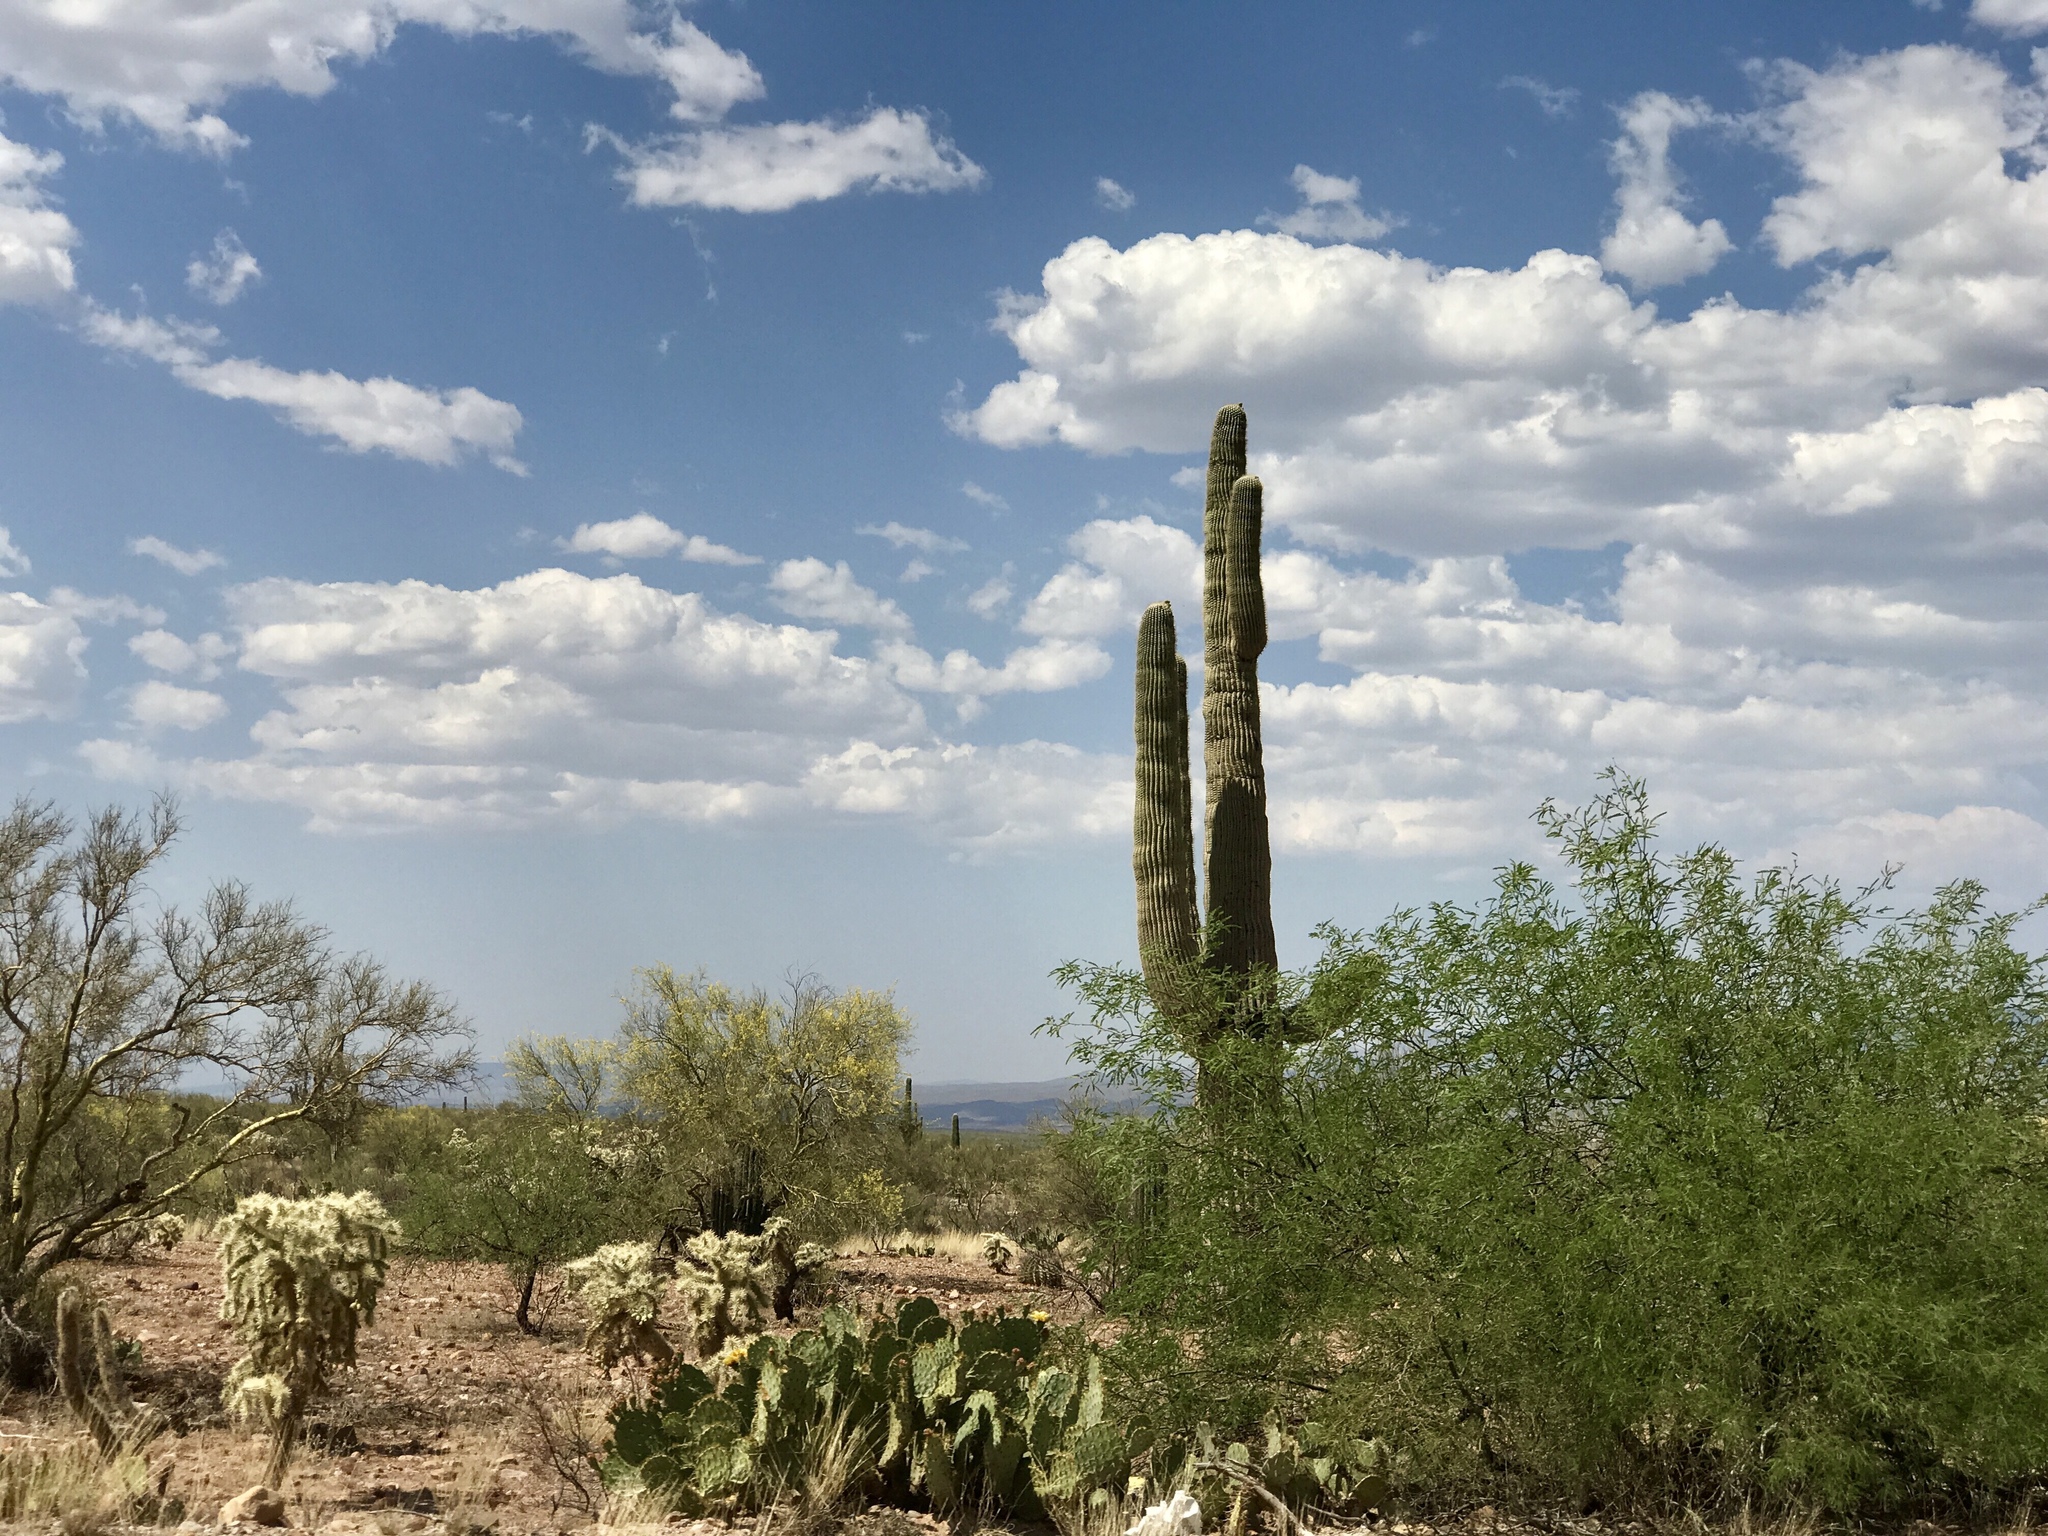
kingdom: Plantae
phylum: Tracheophyta
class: Magnoliopsida
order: Caryophyllales
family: Cactaceae
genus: Carnegiea
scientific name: Carnegiea gigantea
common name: Saguaro
